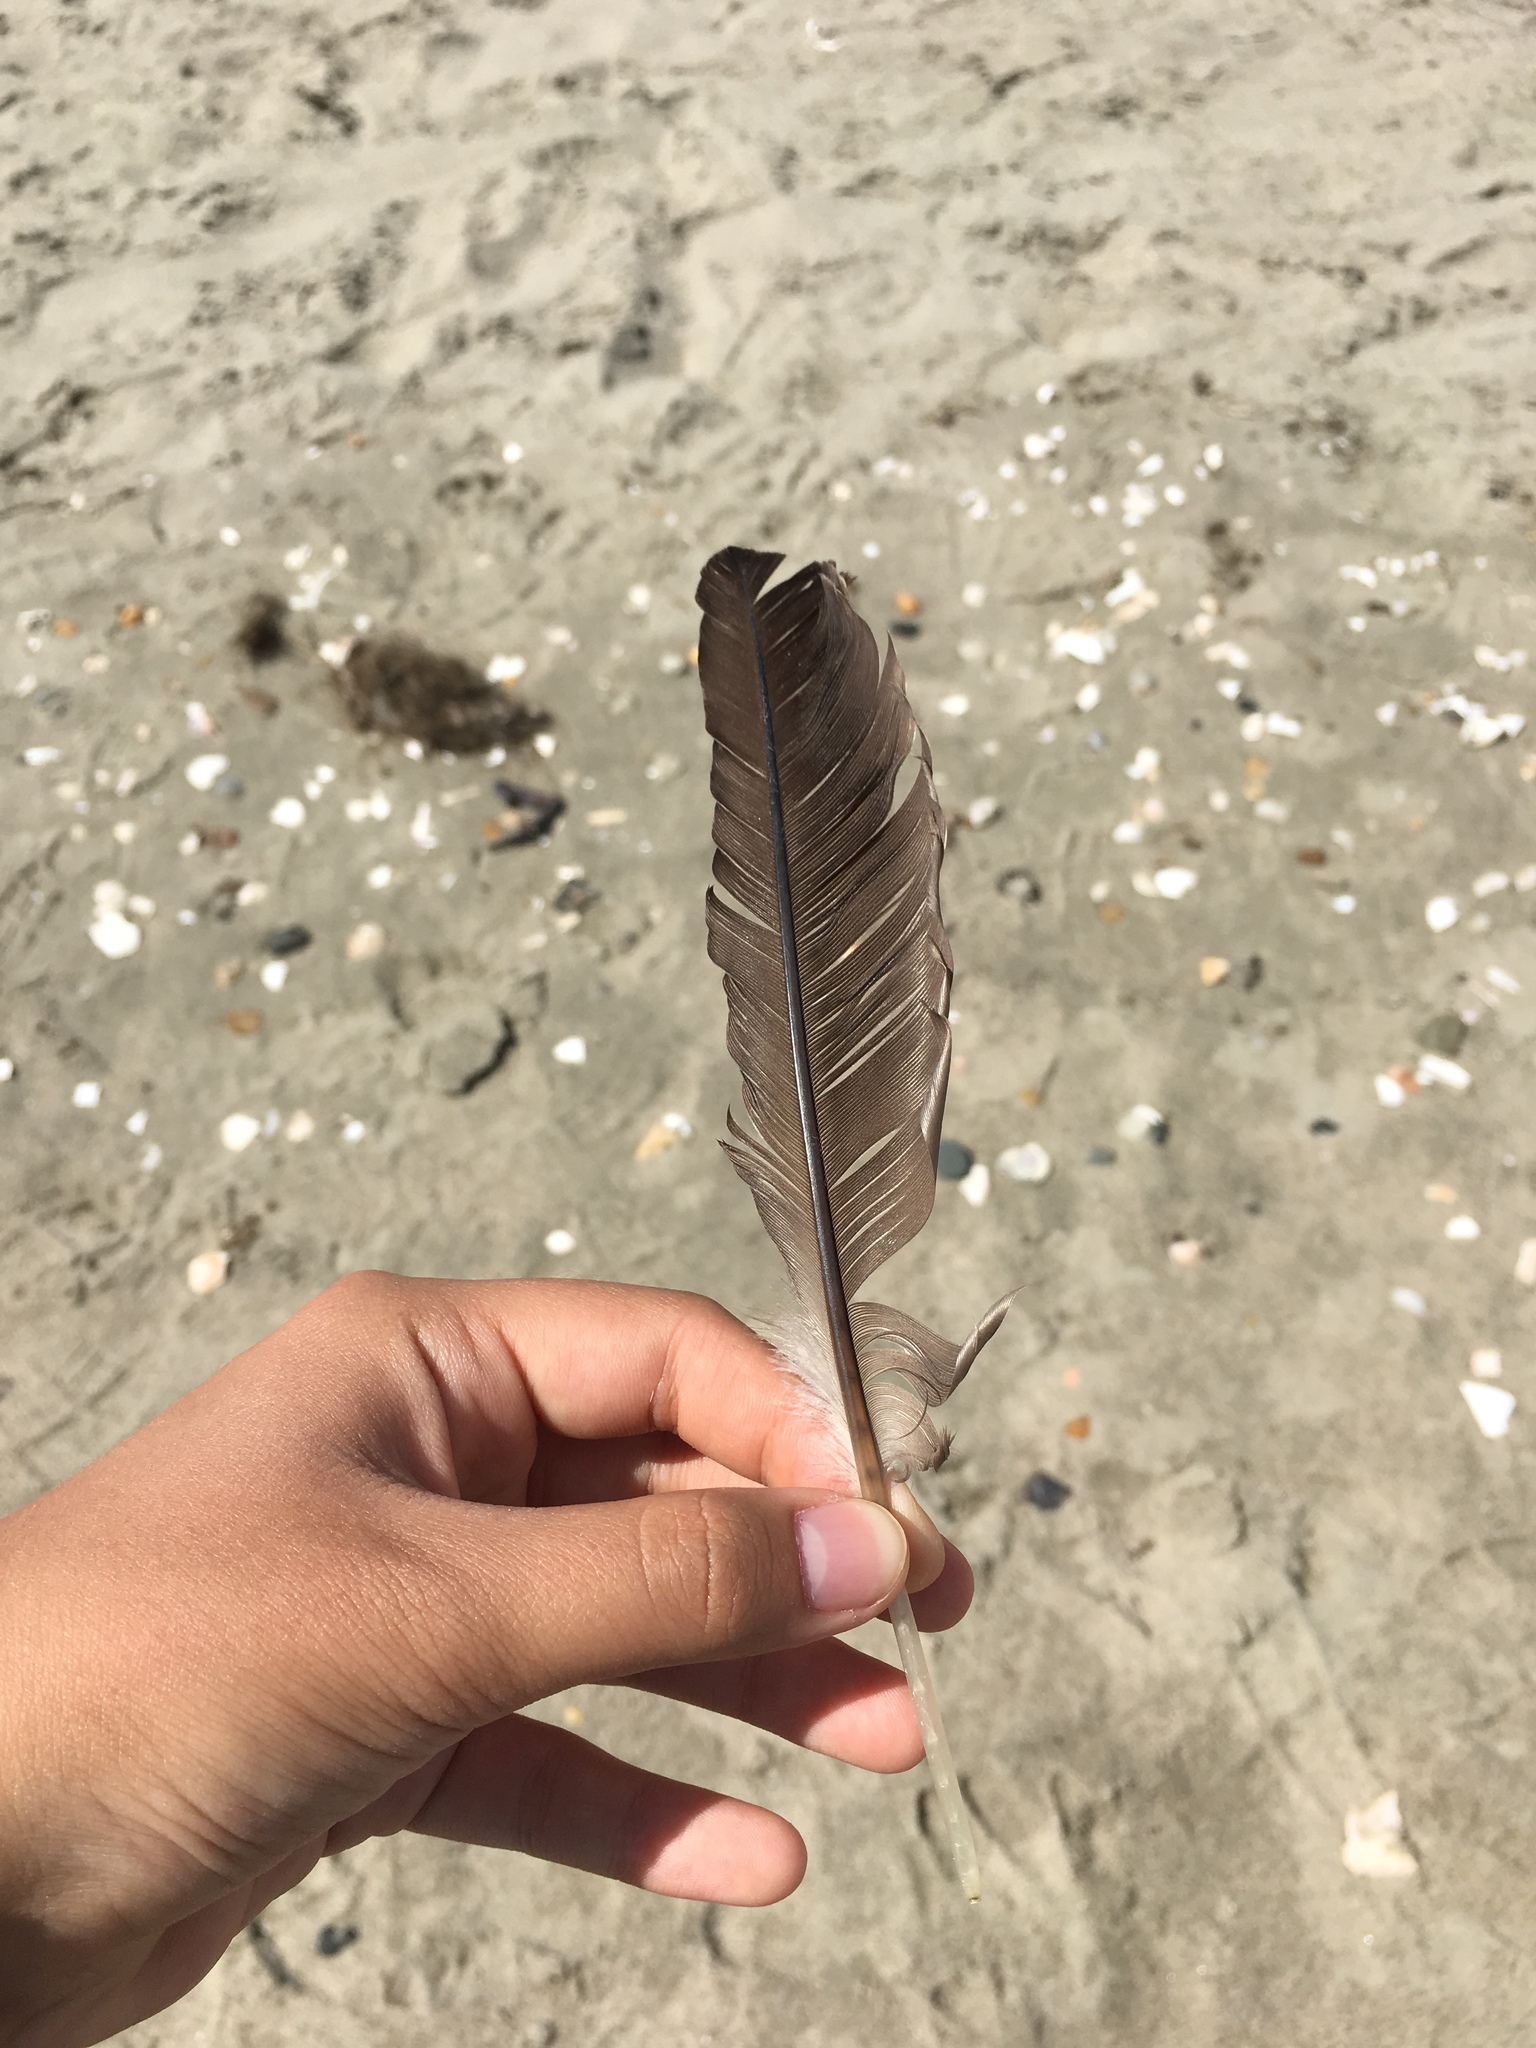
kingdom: Animalia
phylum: Chordata
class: Aves
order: Suliformes
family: Phalacrocoracidae
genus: Phalacrocorax
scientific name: Phalacrocorax auritus
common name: Double-crested cormorant
